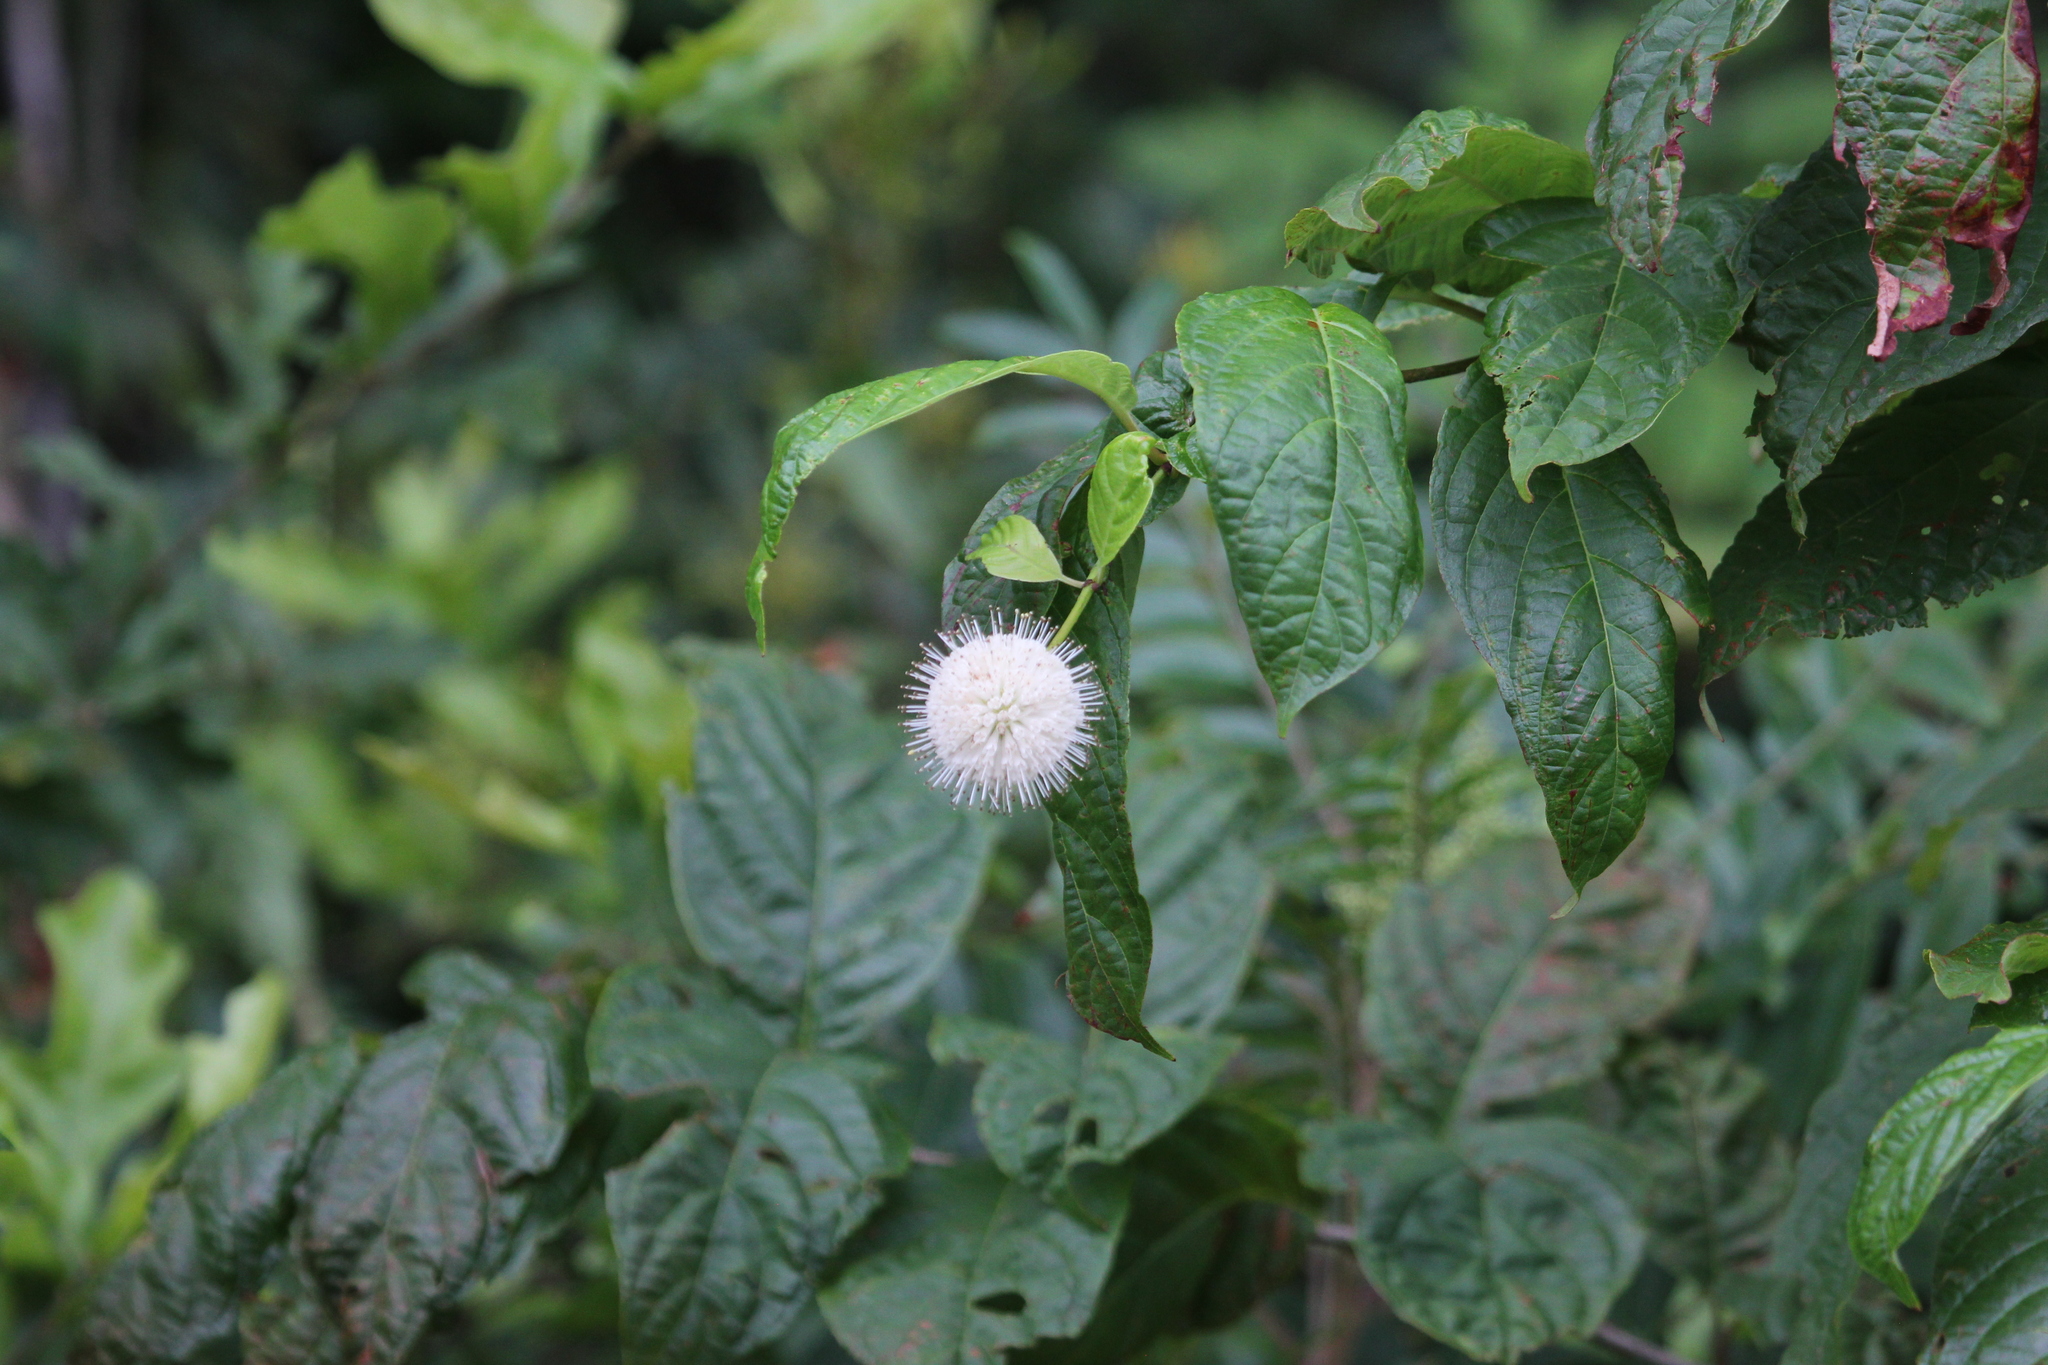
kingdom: Plantae
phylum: Tracheophyta
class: Magnoliopsida
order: Gentianales
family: Rubiaceae
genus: Cephalanthus
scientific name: Cephalanthus occidentalis
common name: Button-willow
